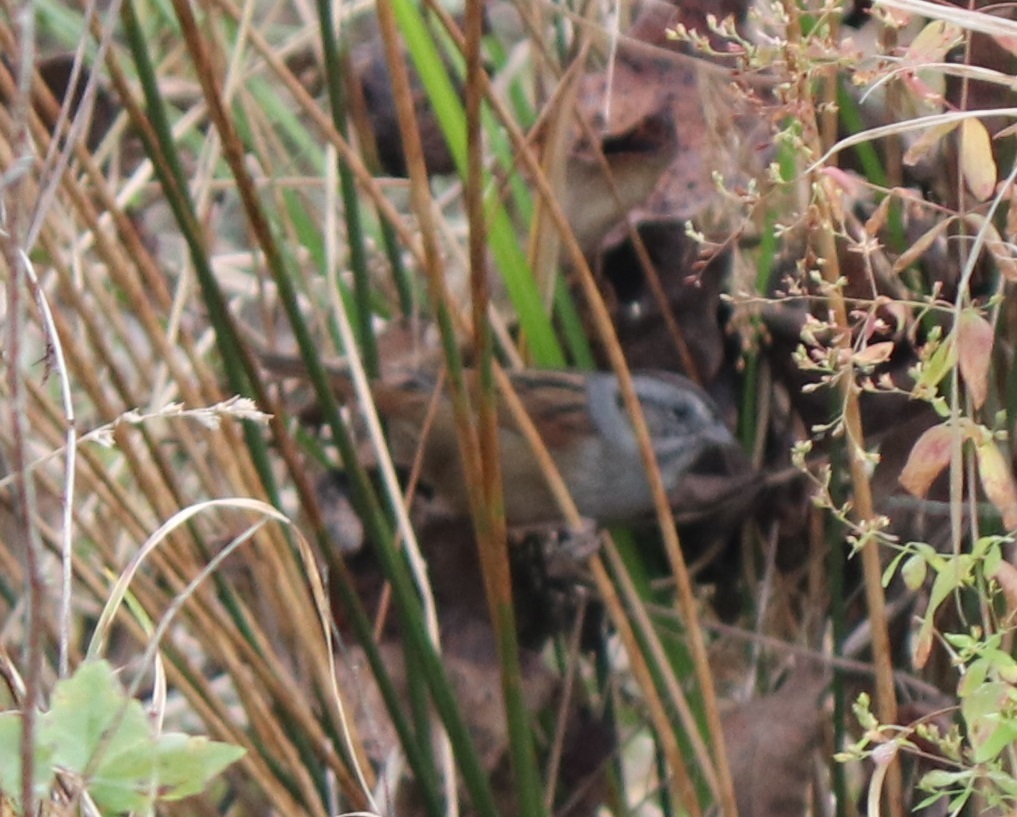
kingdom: Animalia
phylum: Chordata
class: Aves
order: Passeriformes
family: Passerellidae
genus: Melospiza
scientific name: Melospiza georgiana
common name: Swamp sparrow
